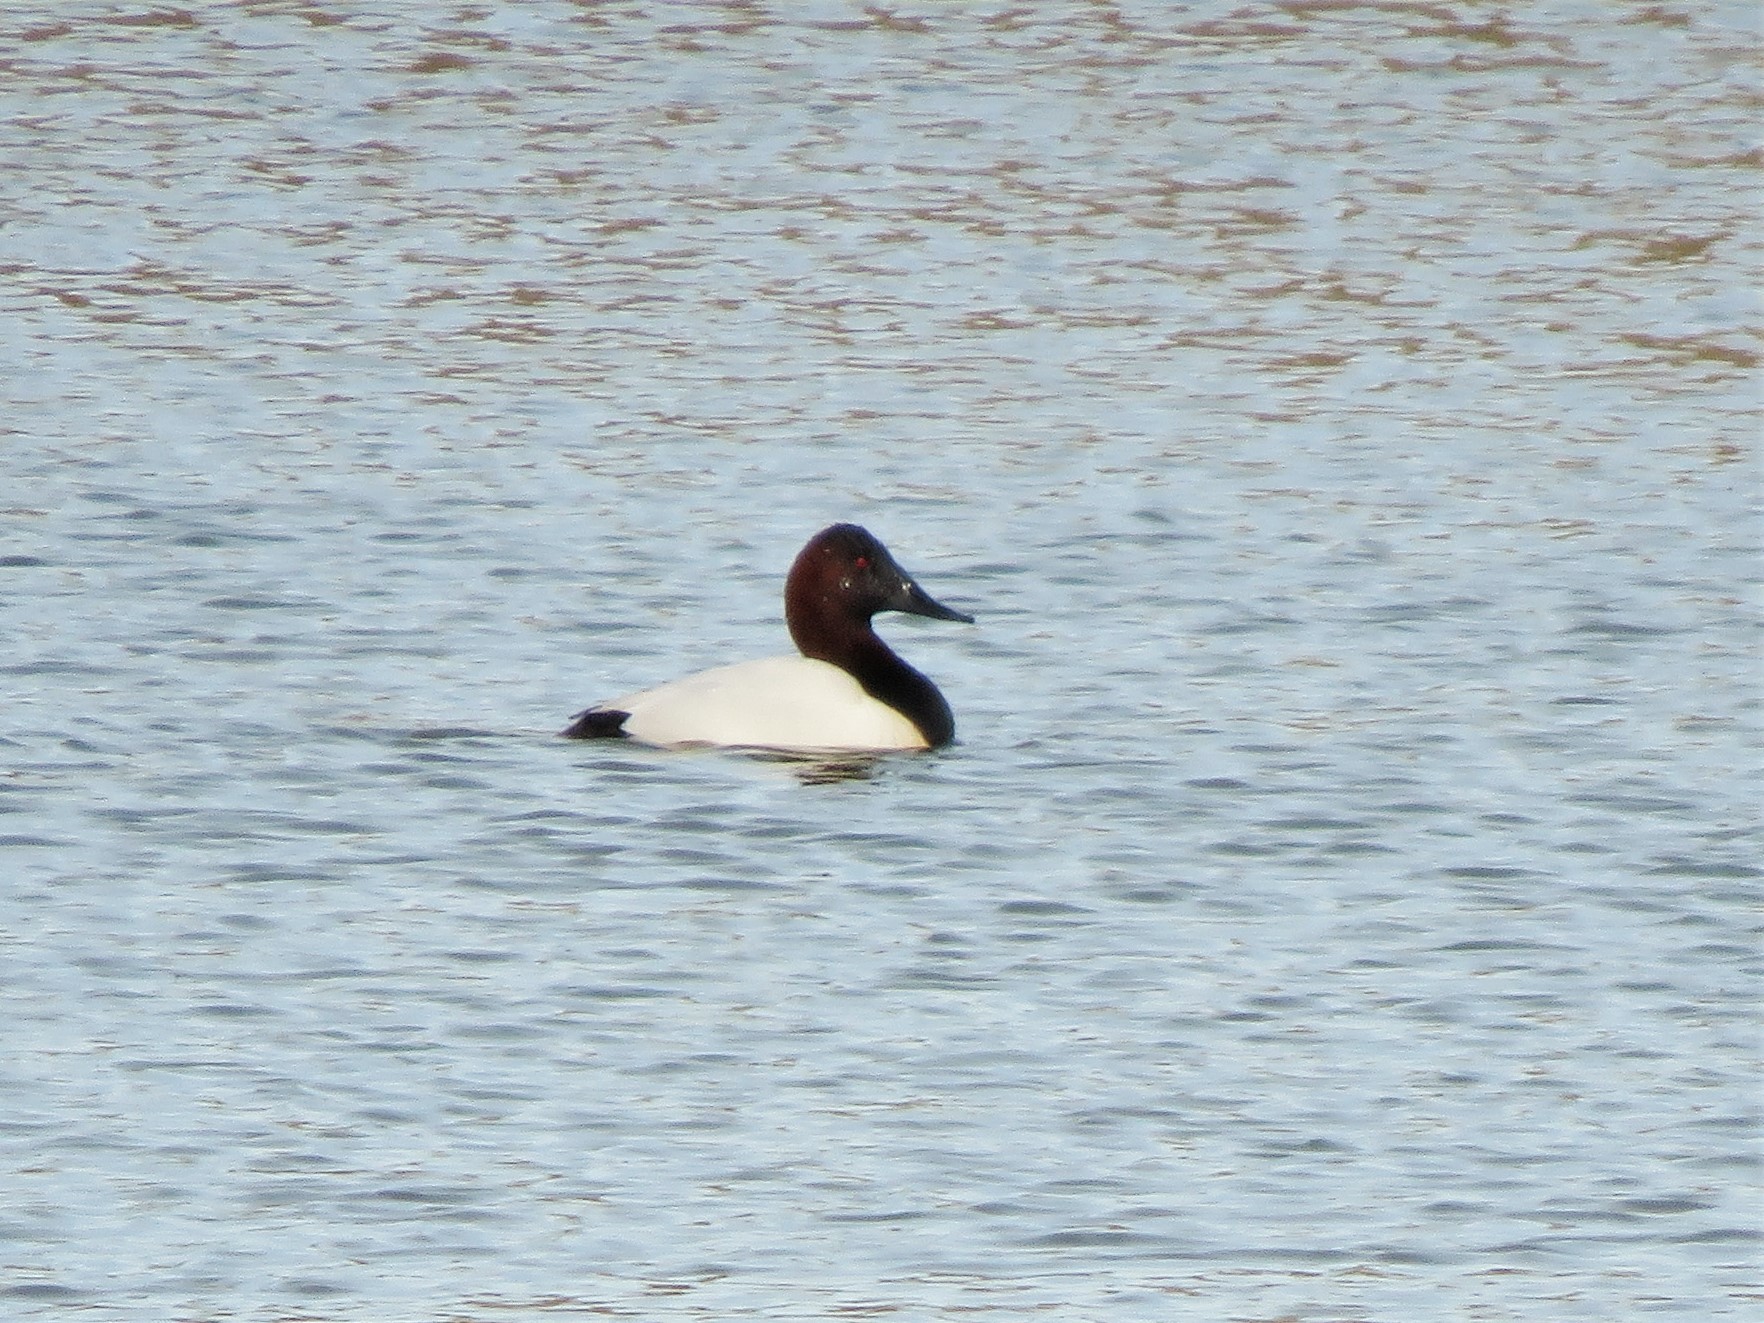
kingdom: Animalia
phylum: Chordata
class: Aves
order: Anseriformes
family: Anatidae
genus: Aythya
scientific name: Aythya valisineria
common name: Canvasback
